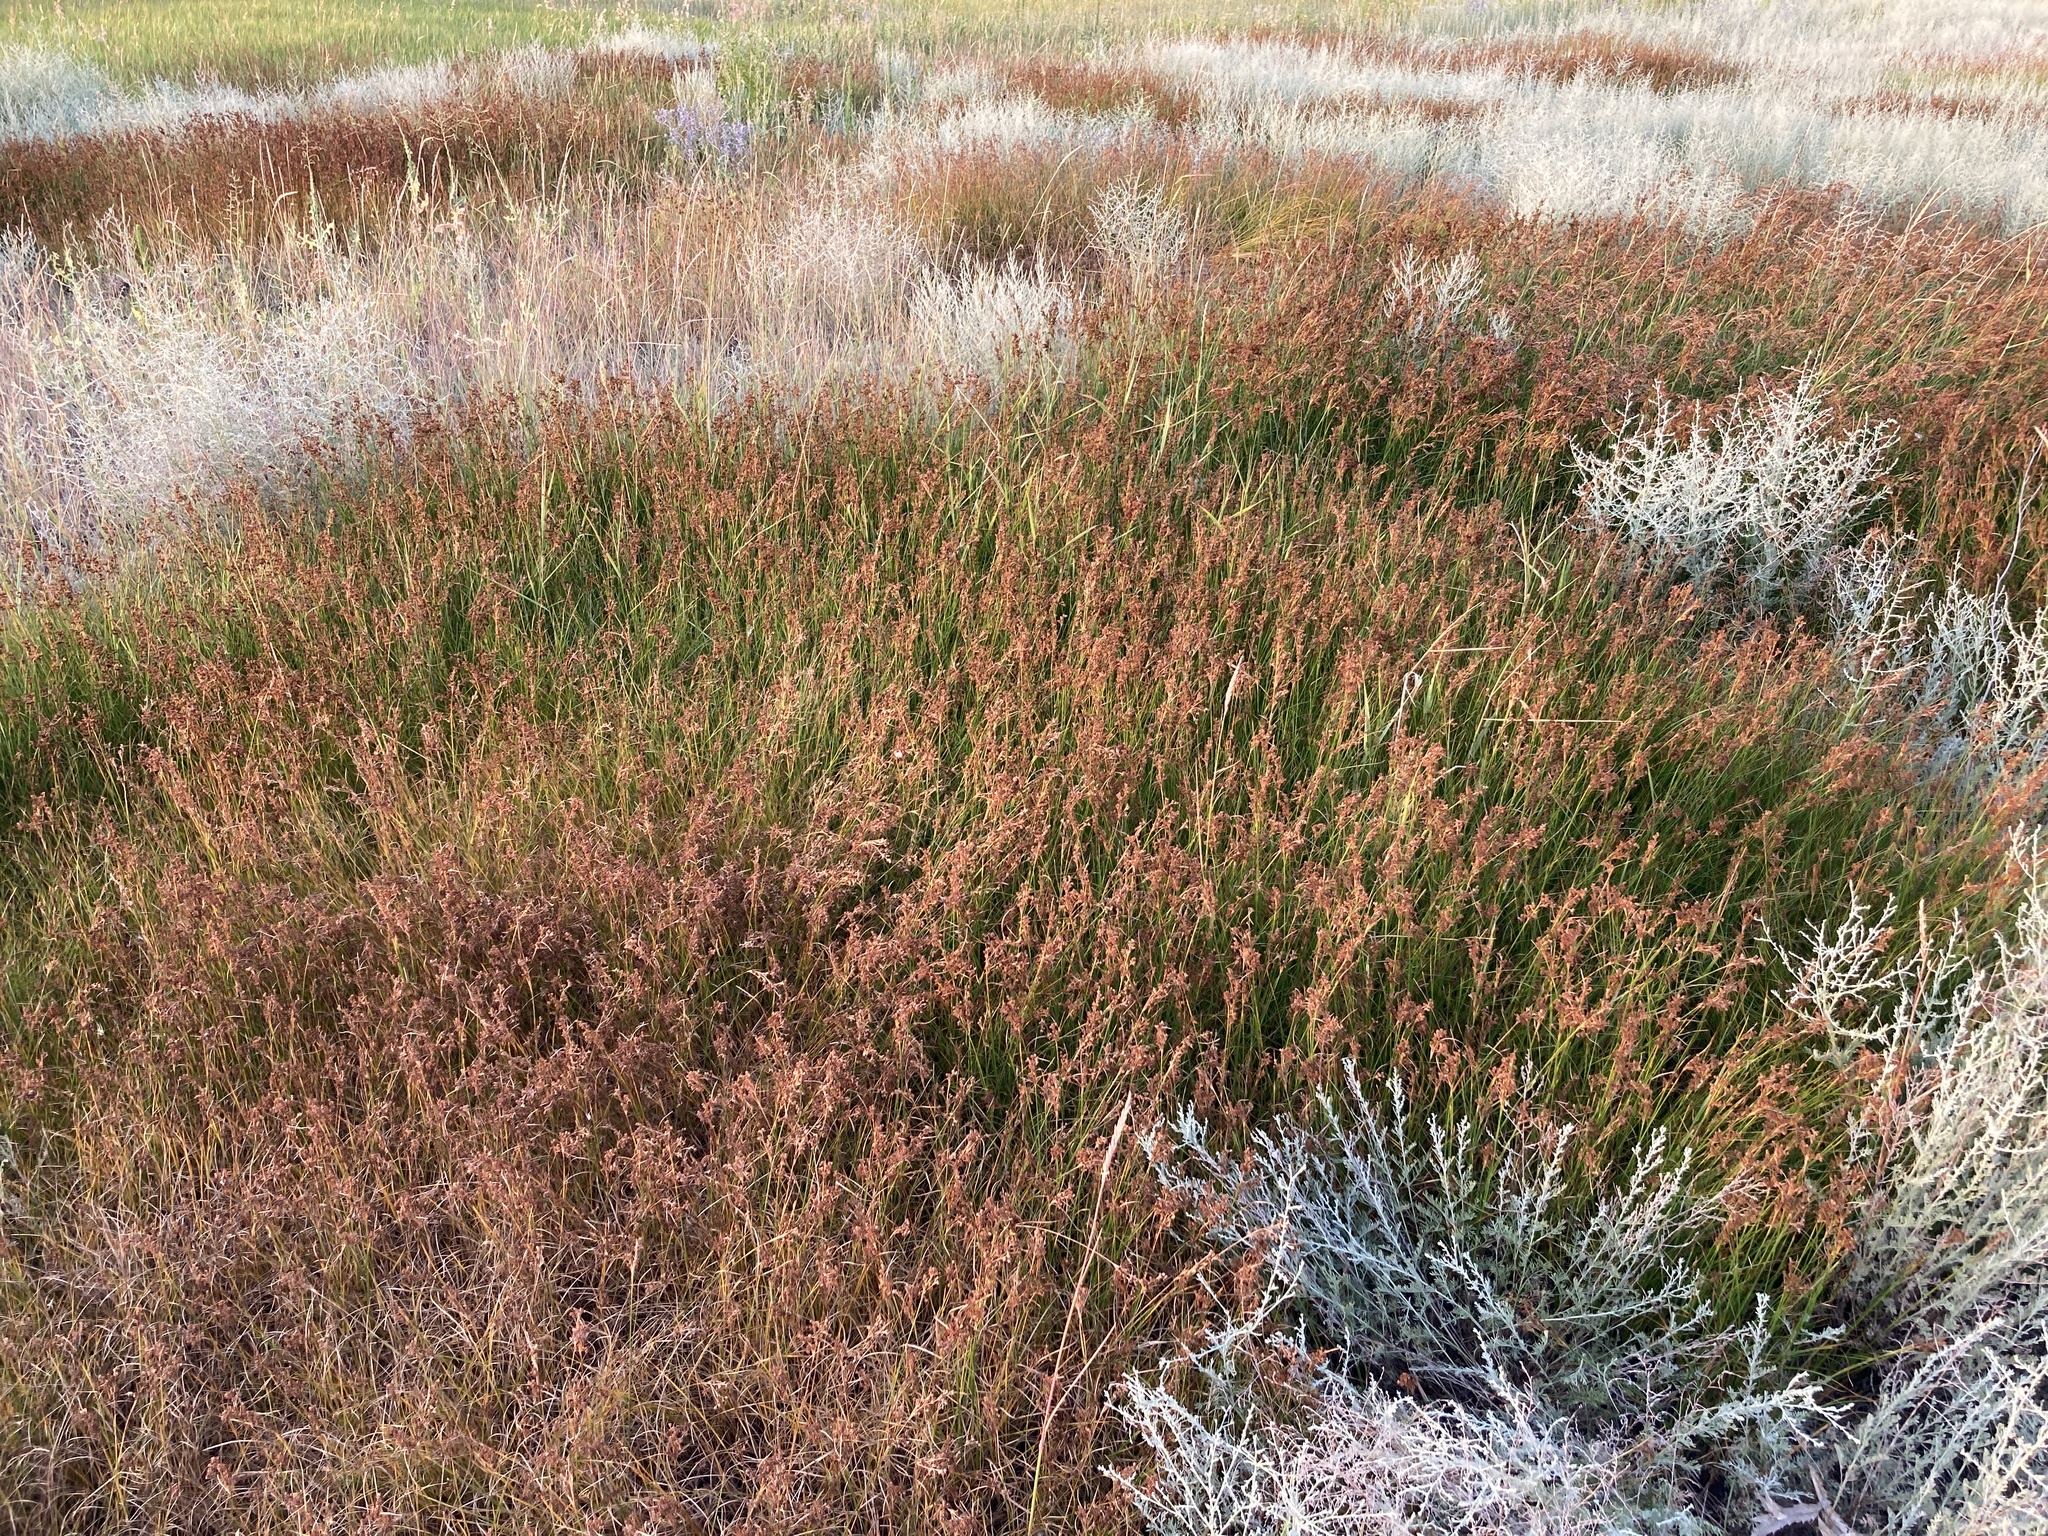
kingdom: Plantae
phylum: Tracheophyta
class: Liliopsida
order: Poales
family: Juncaceae
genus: Juncus
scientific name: Juncus compressus
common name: Round-fruited rush
